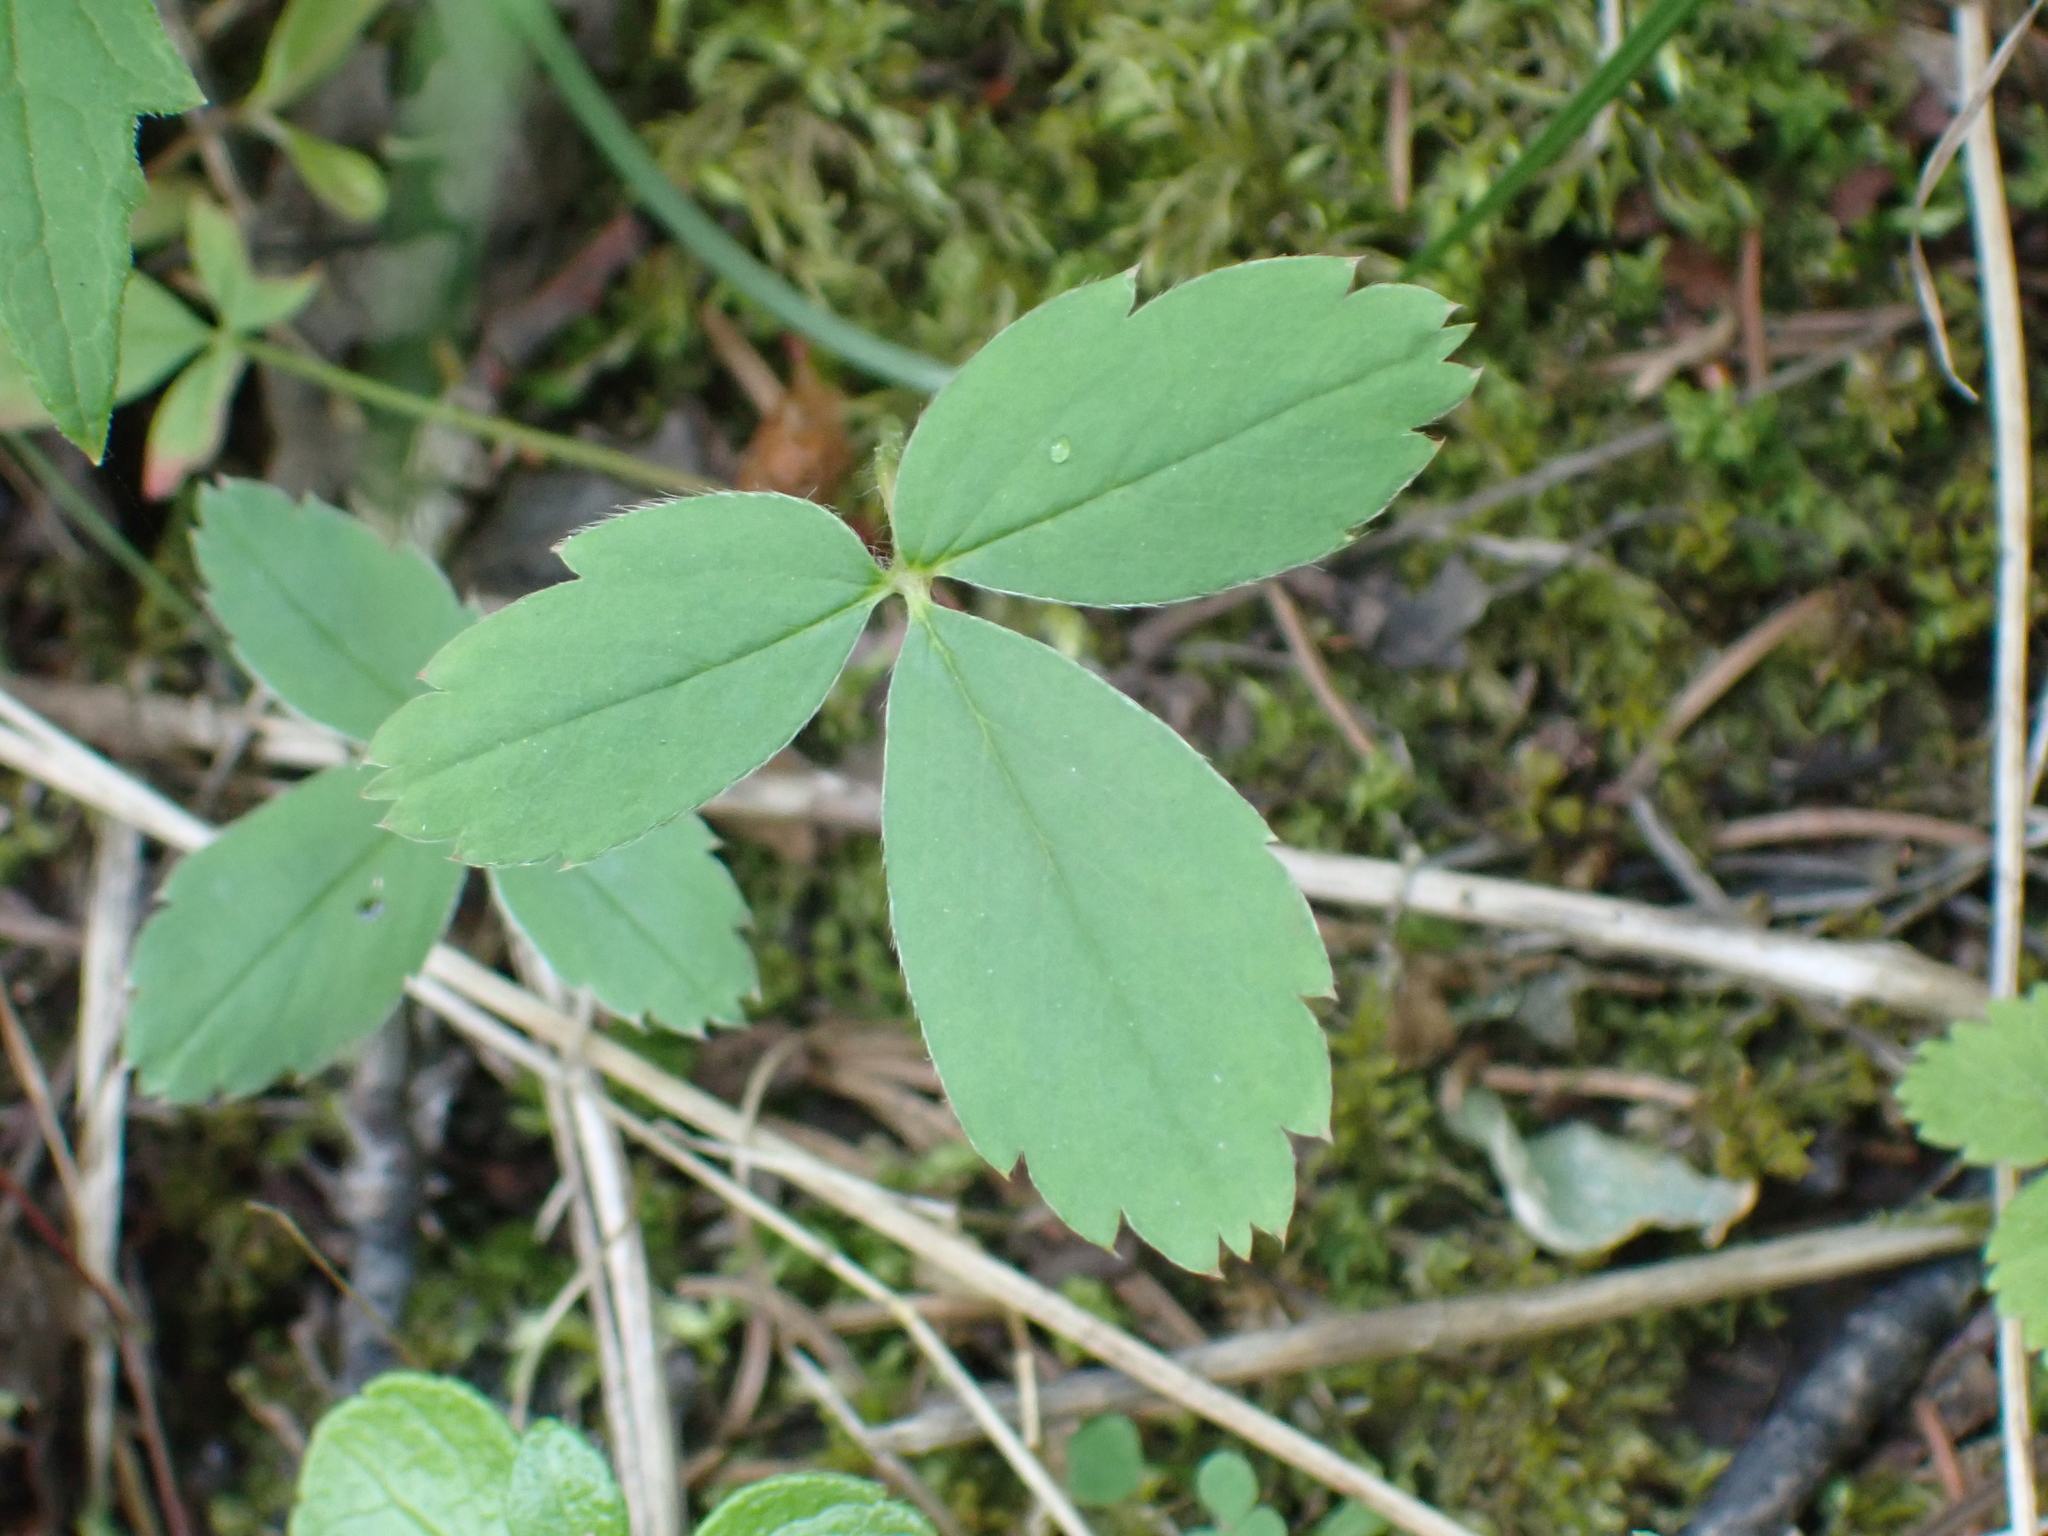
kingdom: Plantae
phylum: Tracheophyta
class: Magnoliopsida
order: Rosales
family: Rosaceae
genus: Fragaria
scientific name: Fragaria virginiana
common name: Thickleaved wild strawberry
